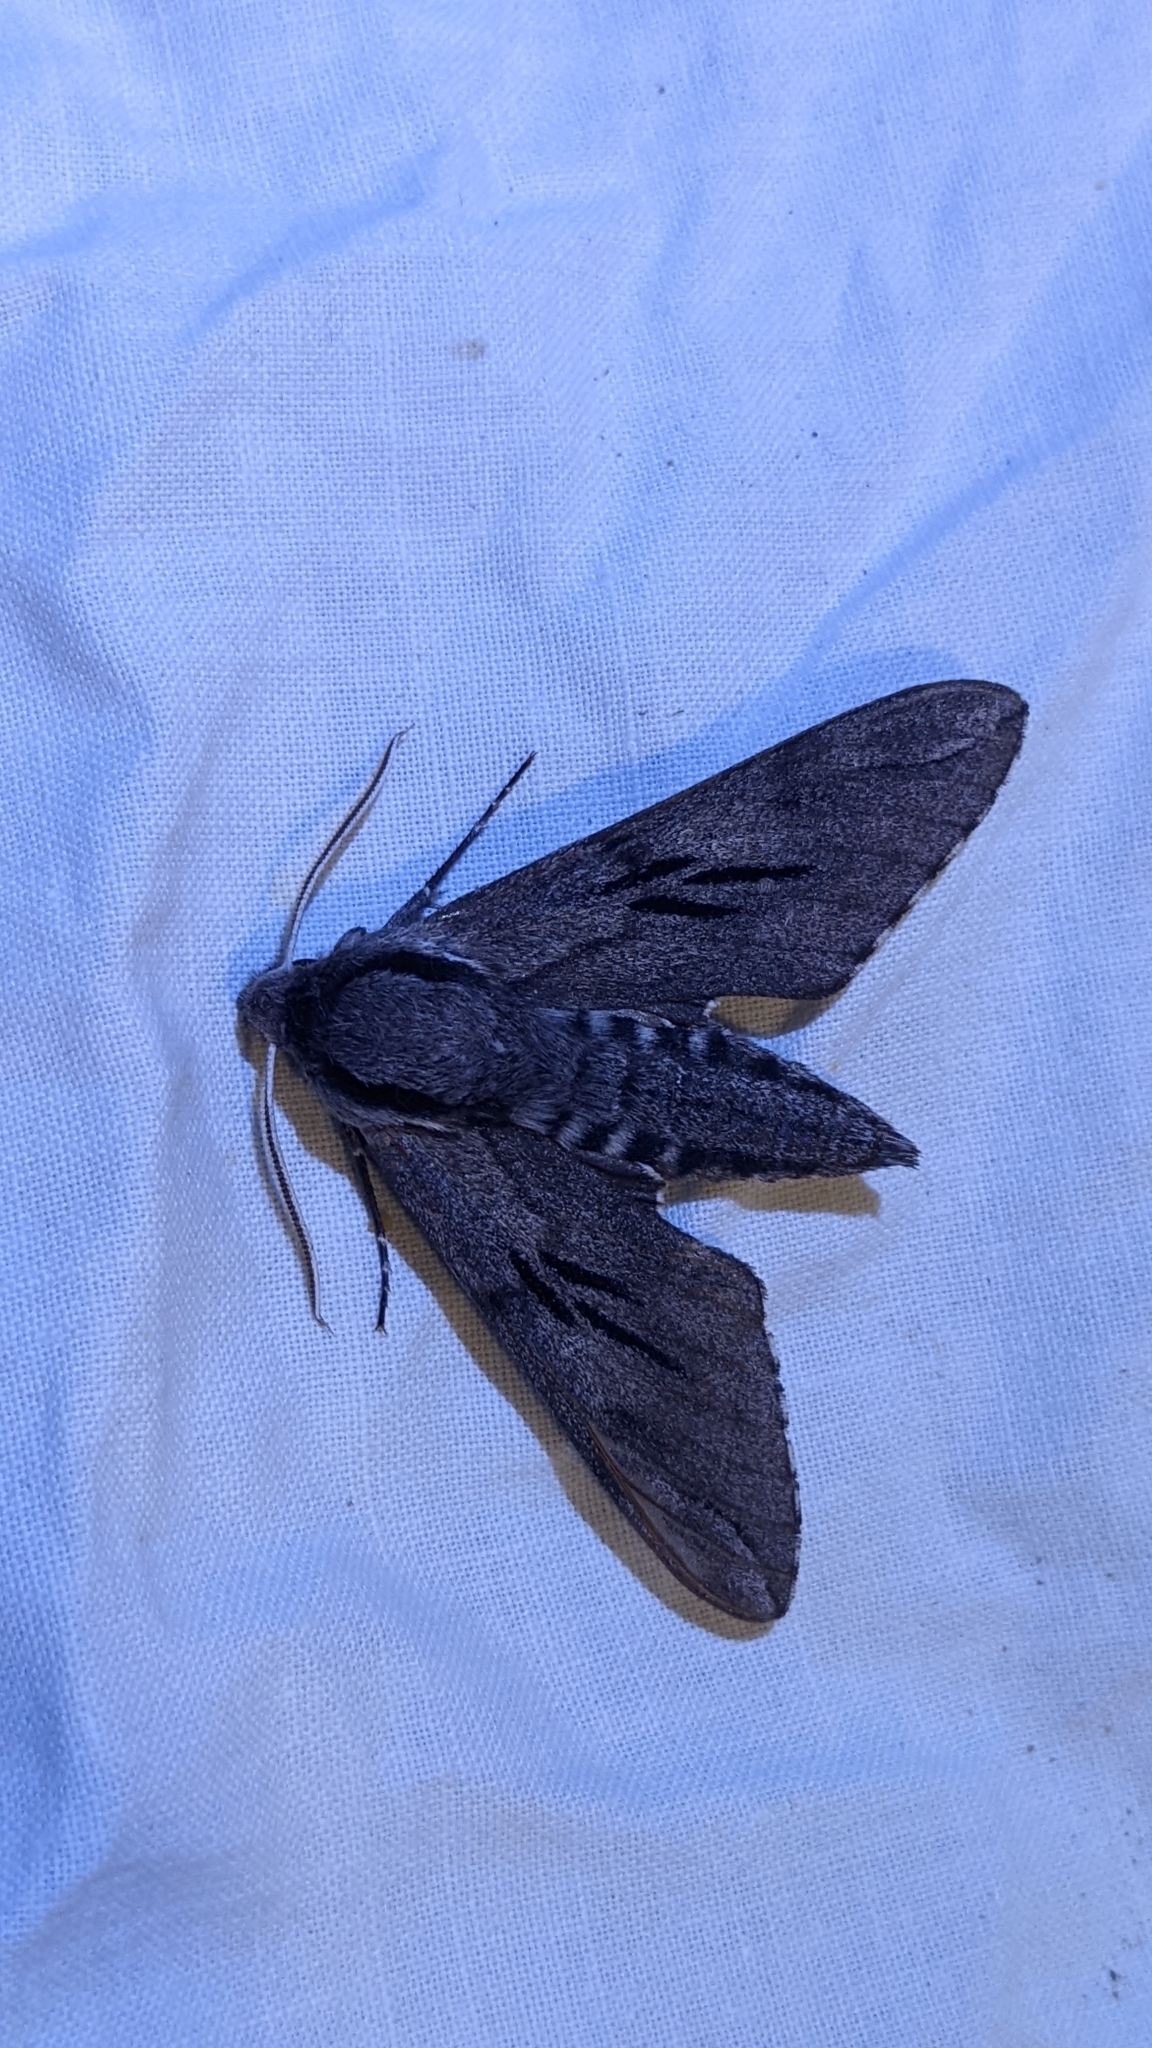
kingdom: Animalia
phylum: Arthropoda
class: Insecta
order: Lepidoptera
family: Sphingidae
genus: Sphinx
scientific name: Sphinx maurorum
